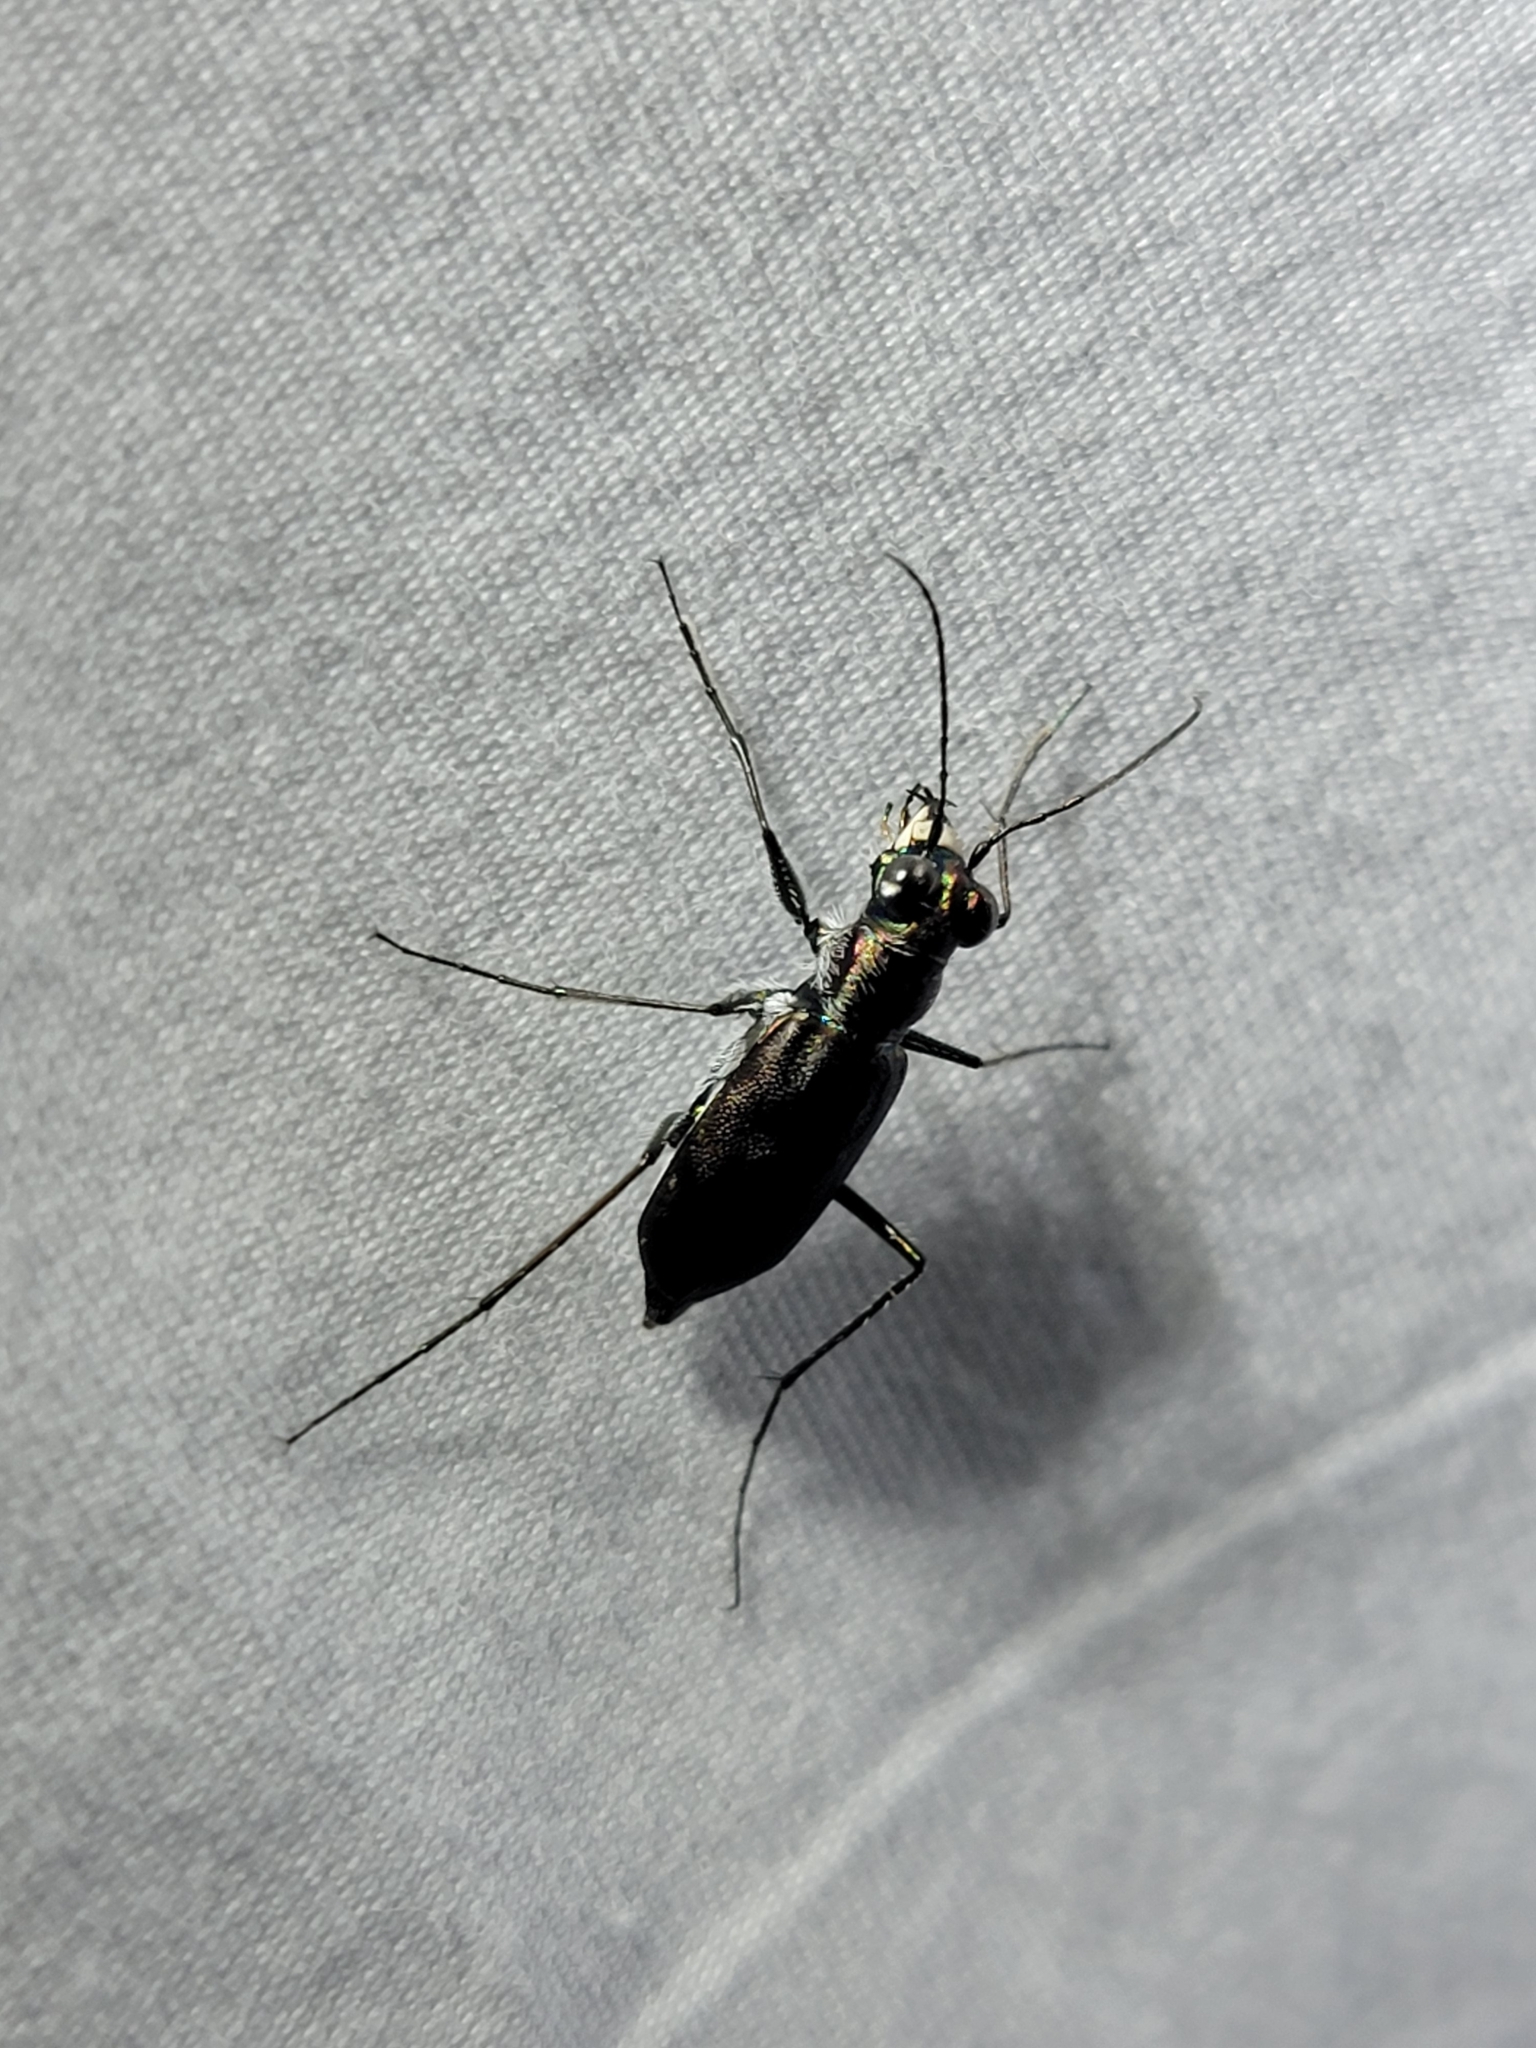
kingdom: Animalia
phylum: Arthropoda
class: Insecta
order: Coleoptera
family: Carabidae
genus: Cicindela
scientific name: Cicindela punctulata
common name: Punctured tiger beetle
